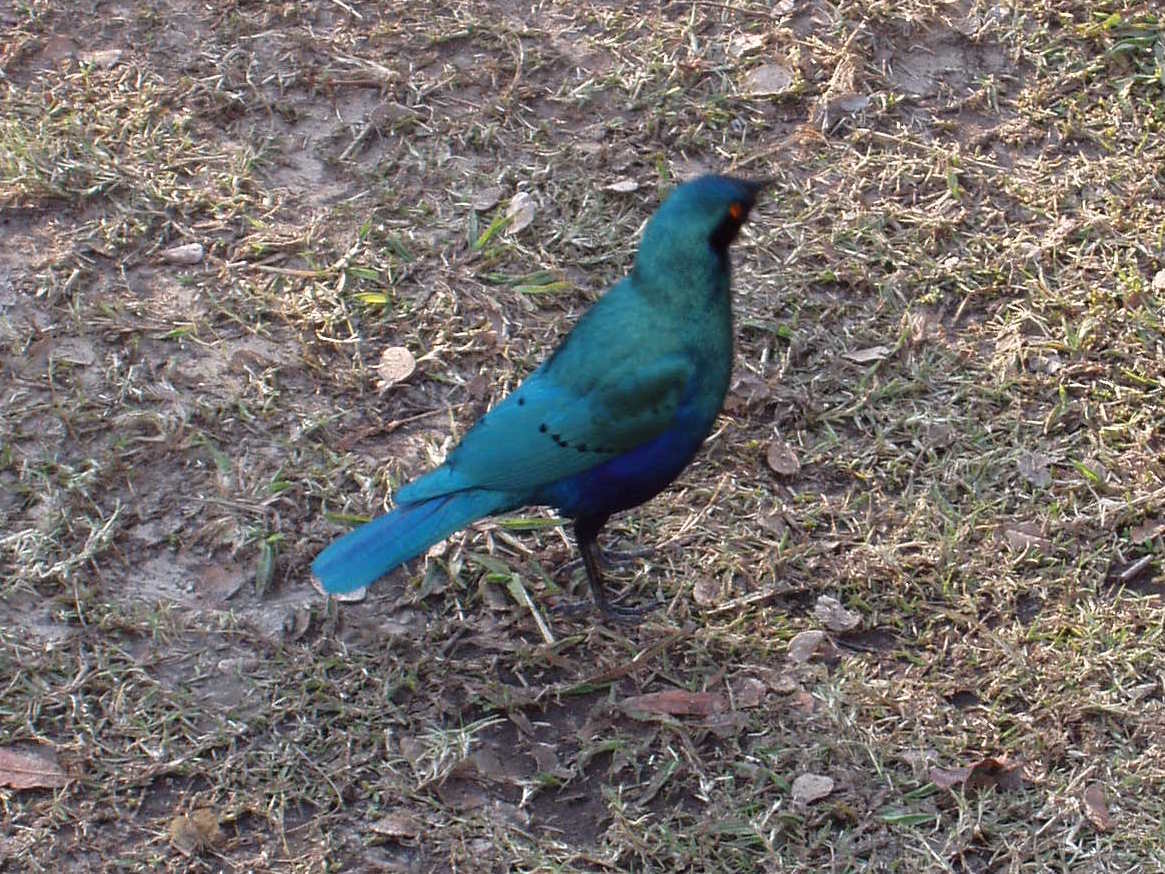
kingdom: Animalia
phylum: Chordata
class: Aves
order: Passeriformes
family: Sturnidae
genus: Lamprotornis
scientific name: Lamprotornis chalybaeus
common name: Greater blue-eared starling
